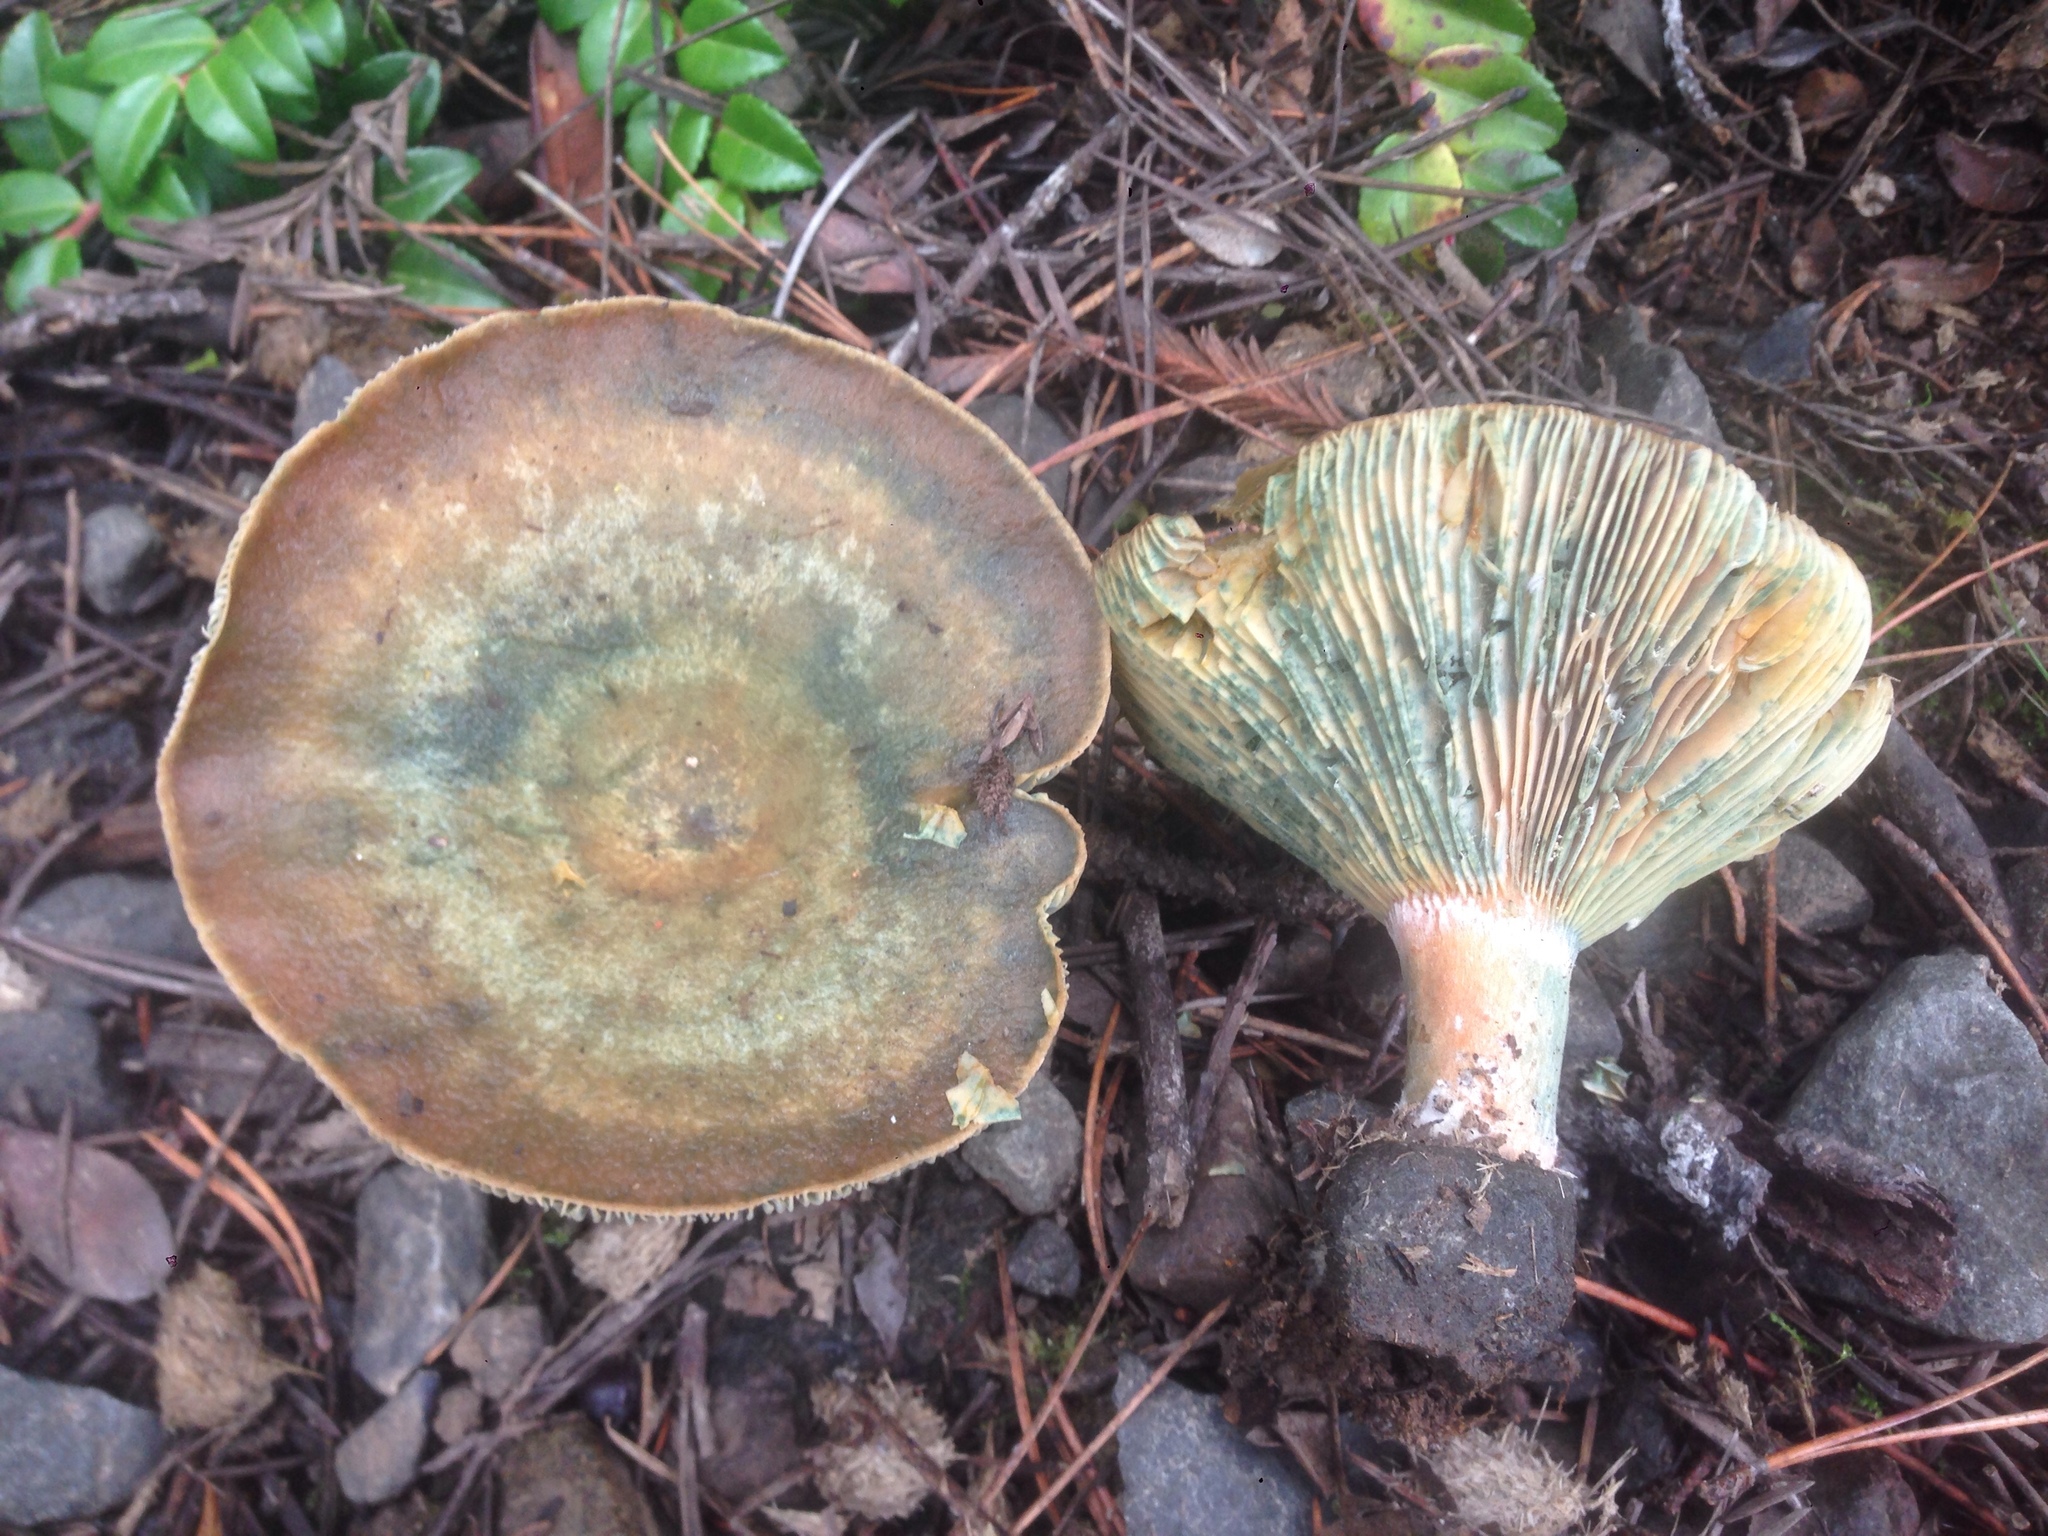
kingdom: Fungi
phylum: Basidiomycota
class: Agaricomycetes
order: Russulales
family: Russulaceae
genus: Lactarius
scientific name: Lactarius deliciosus
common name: Saffron milk-cap
